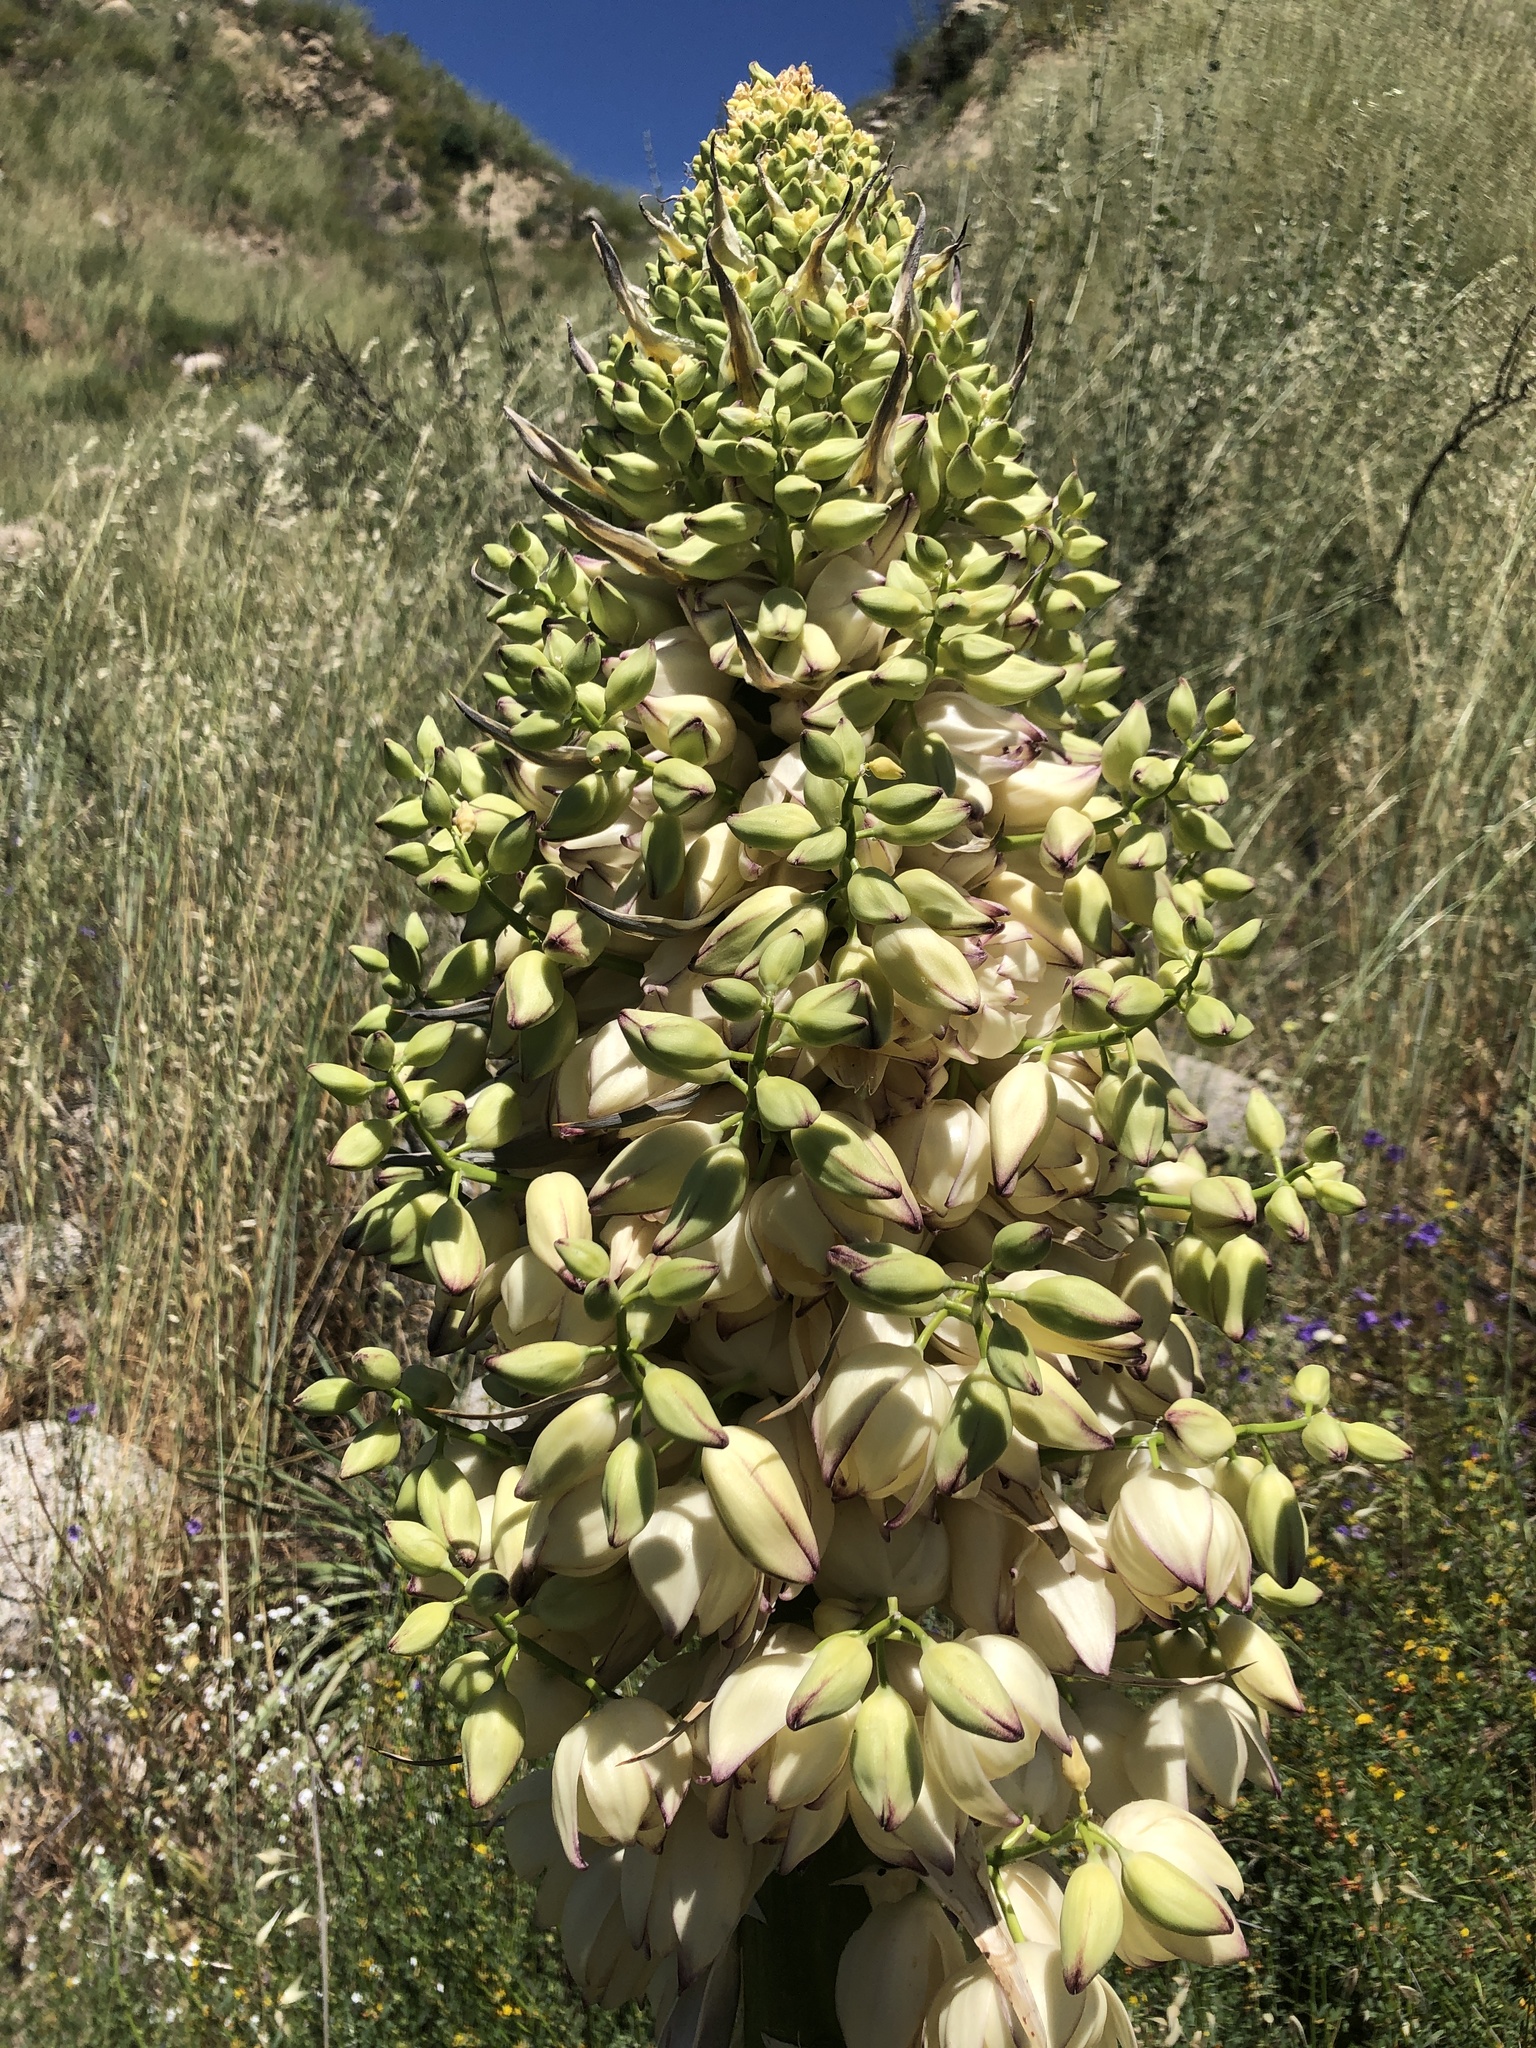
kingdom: Plantae
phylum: Tracheophyta
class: Liliopsida
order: Asparagales
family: Asparagaceae
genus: Hesperoyucca
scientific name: Hesperoyucca whipplei
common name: Our lord's-candle
